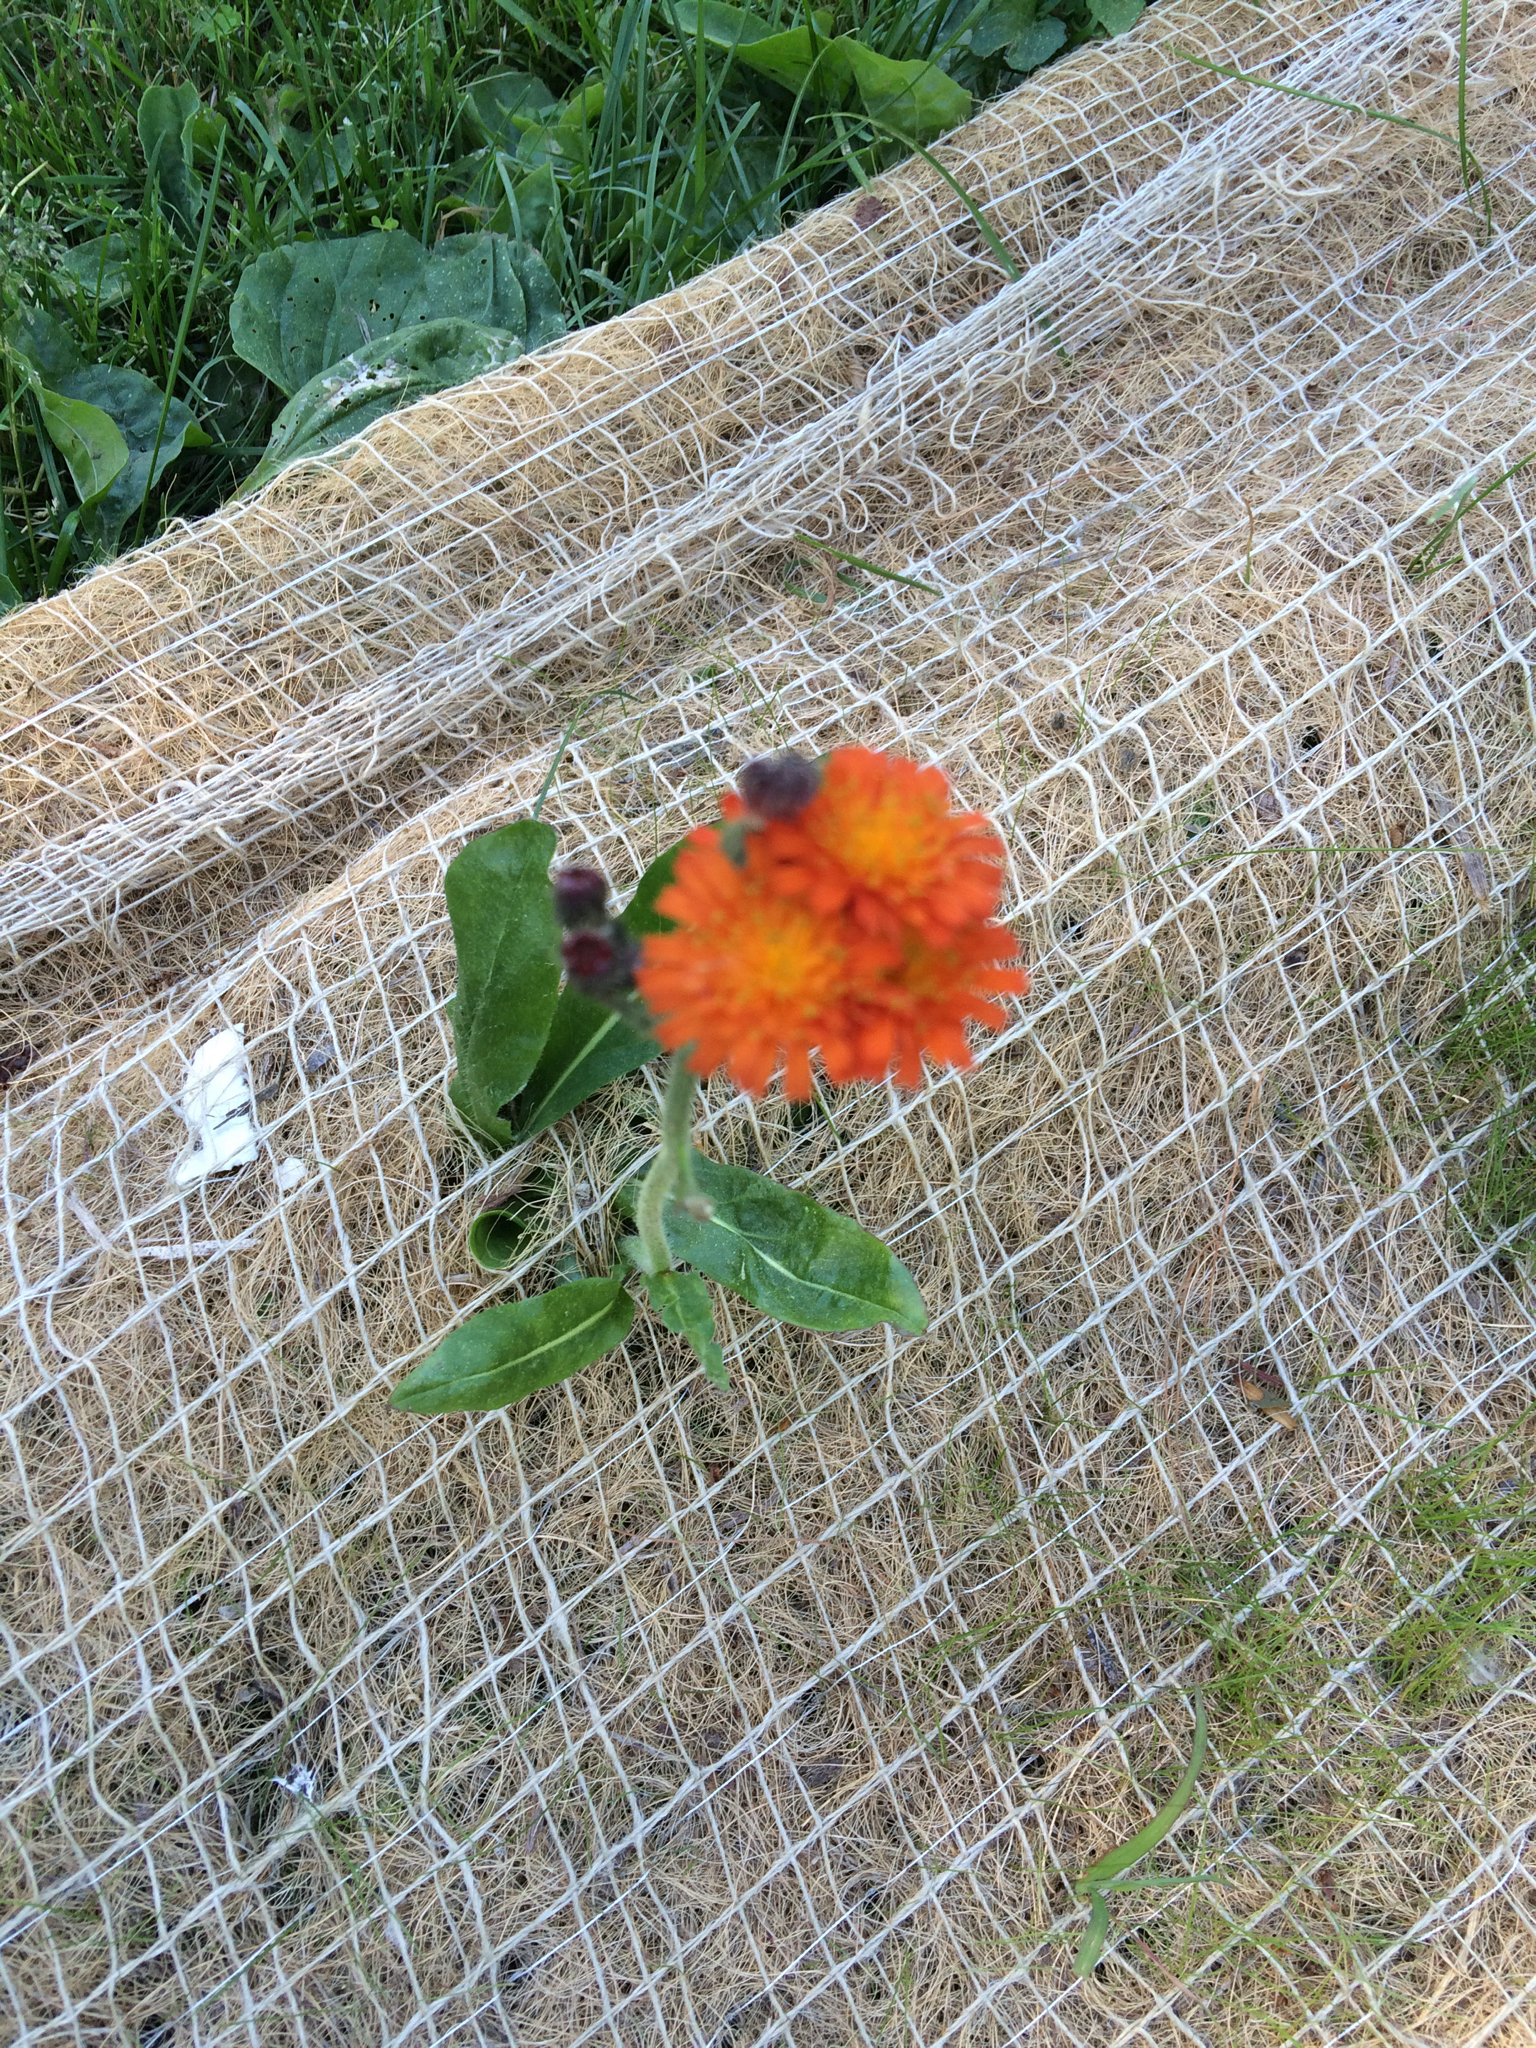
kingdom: Plantae
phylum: Tracheophyta
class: Magnoliopsida
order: Asterales
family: Asteraceae
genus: Pilosella
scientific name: Pilosella aurantiaca
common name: Fox-and-cubs
